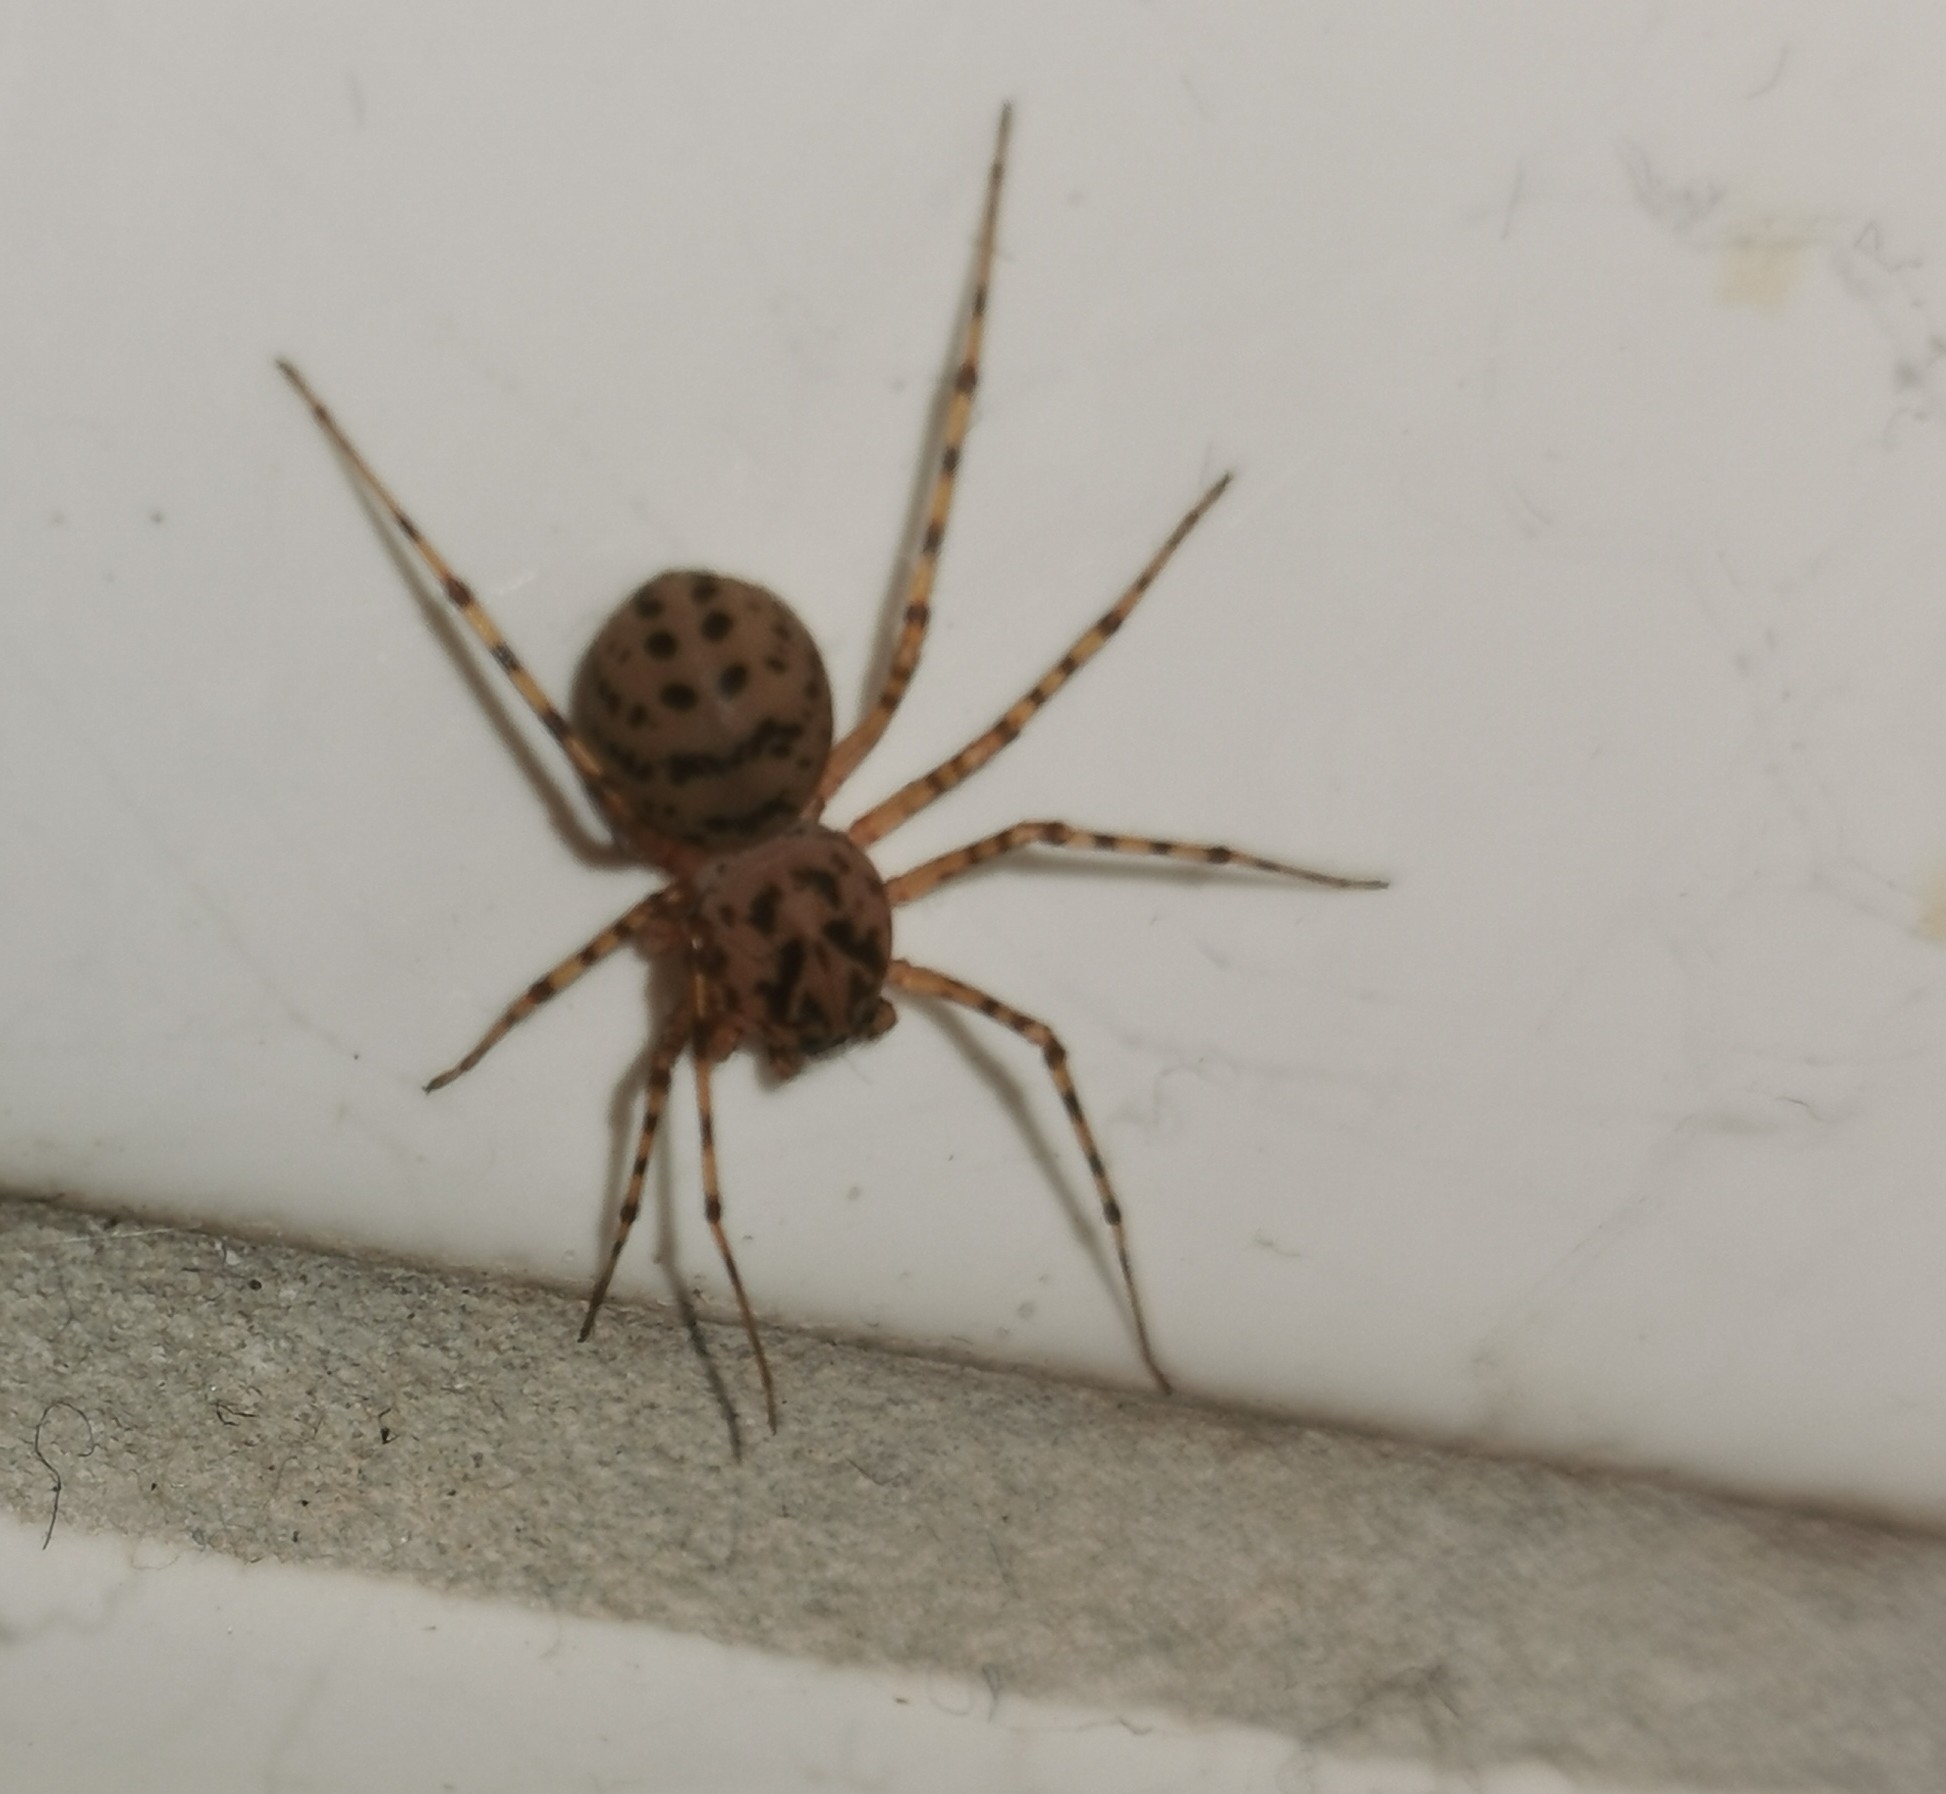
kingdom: Animalia
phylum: Arthropoda
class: Arachnida
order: Araneae
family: Scytodidae
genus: Scytodes
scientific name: Scytodes thoracica
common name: Spitting spider
